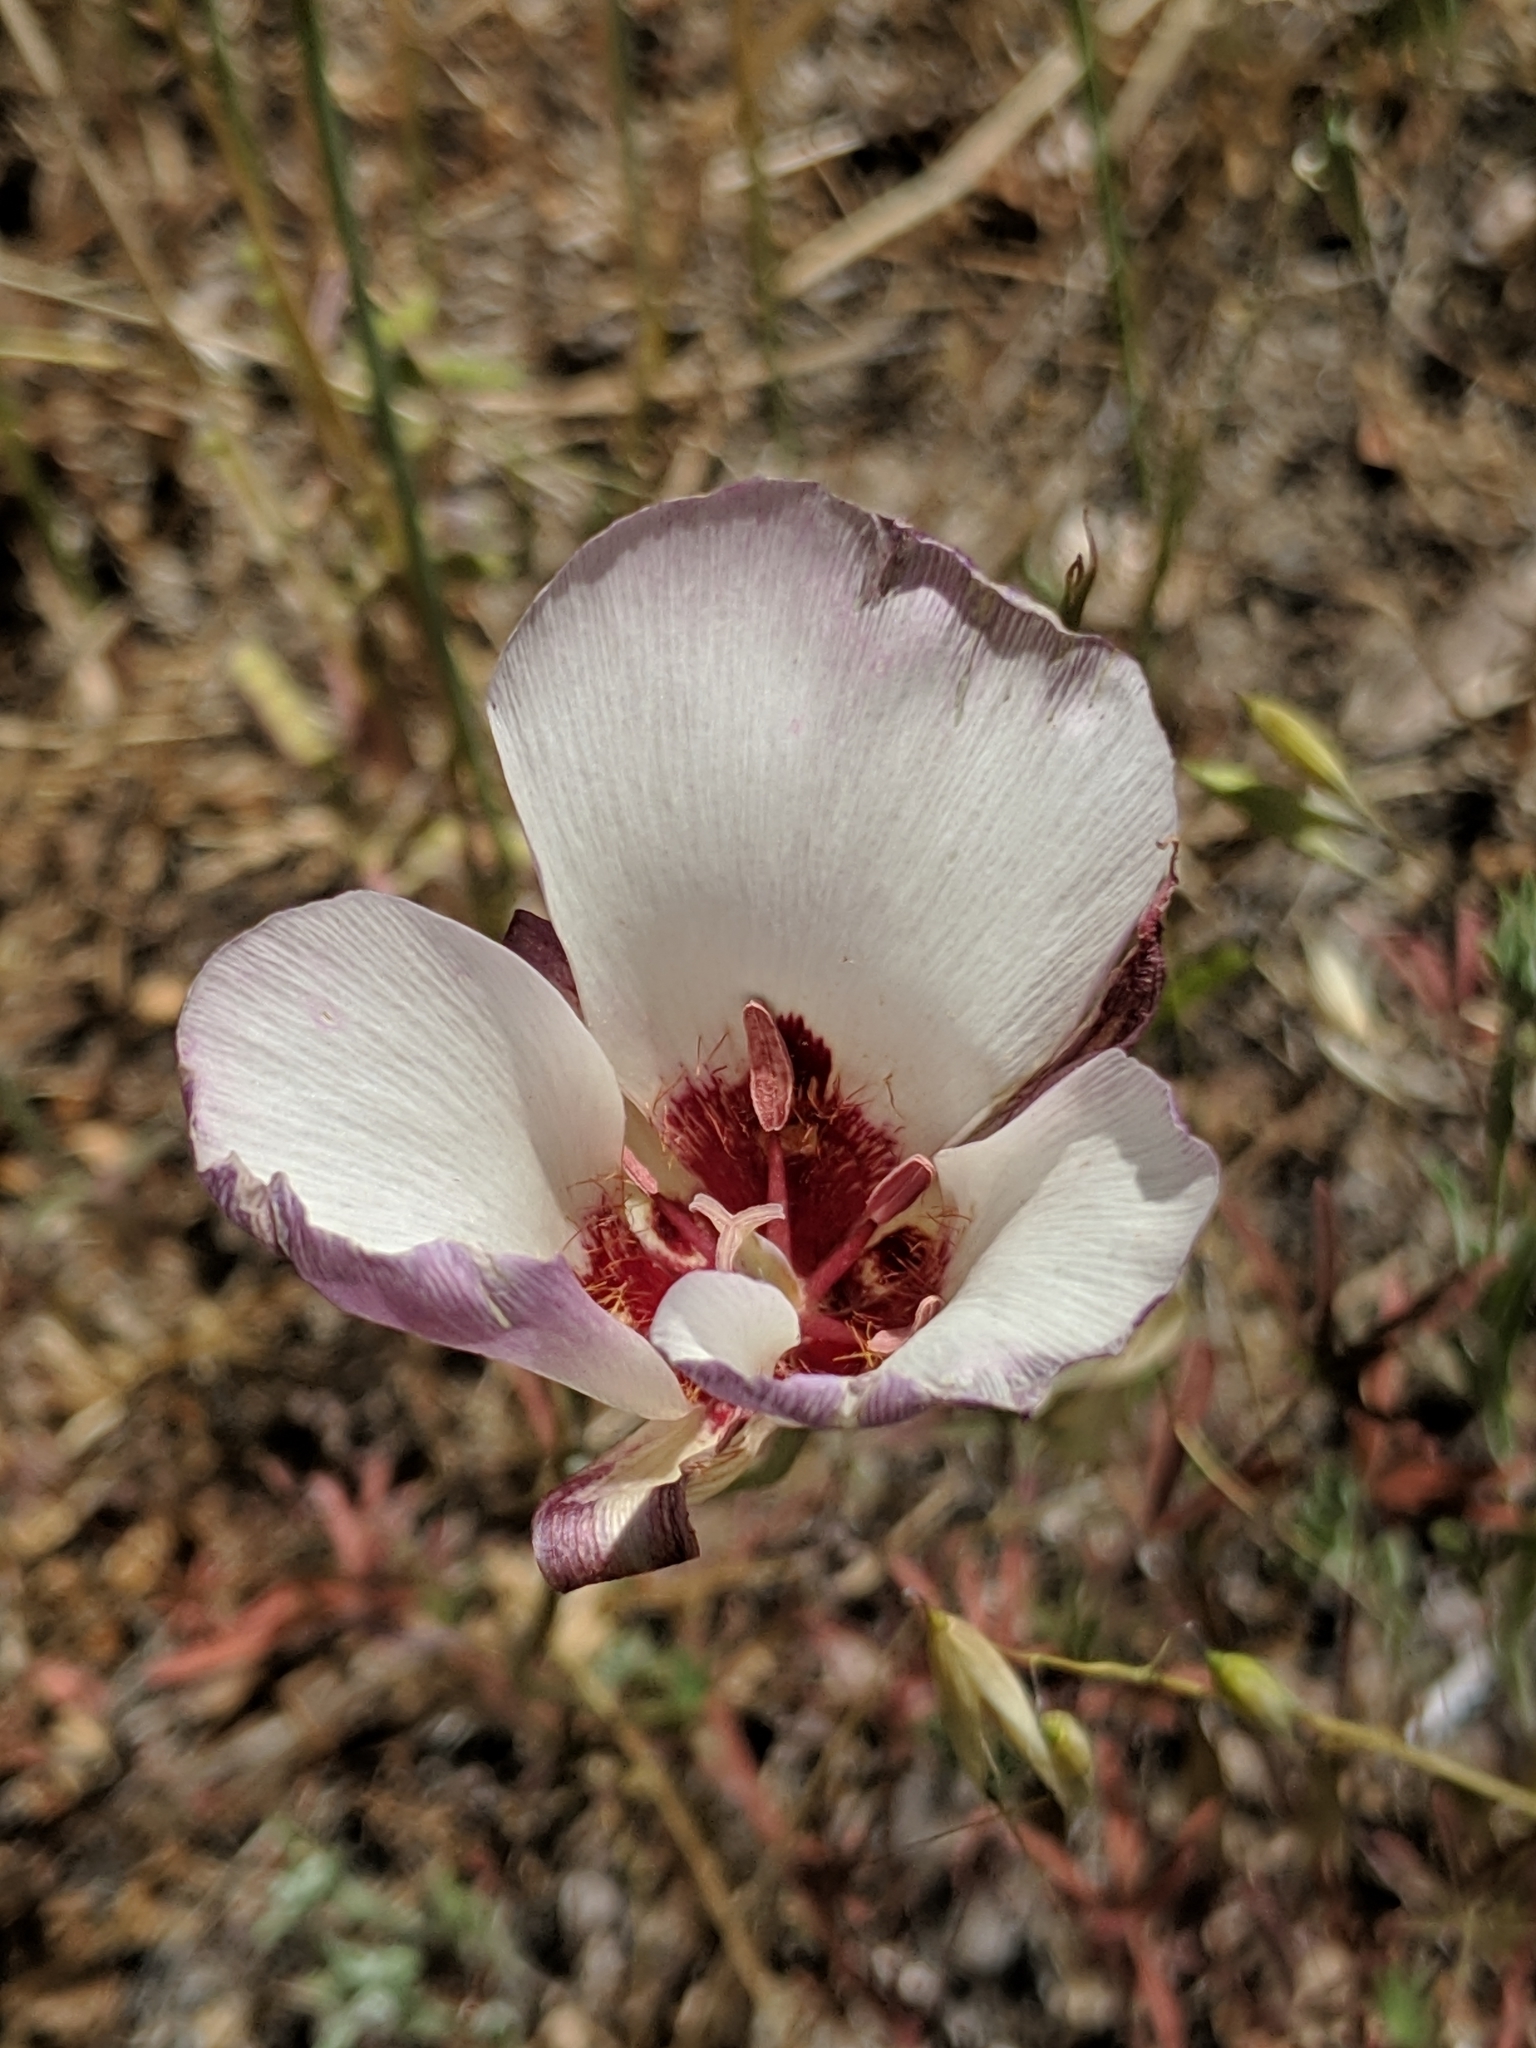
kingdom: Plantae
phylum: Tracheophyta
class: Liliopsida
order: Liliales
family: Liliaceae
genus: Calochortus
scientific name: Calochortus simulans
